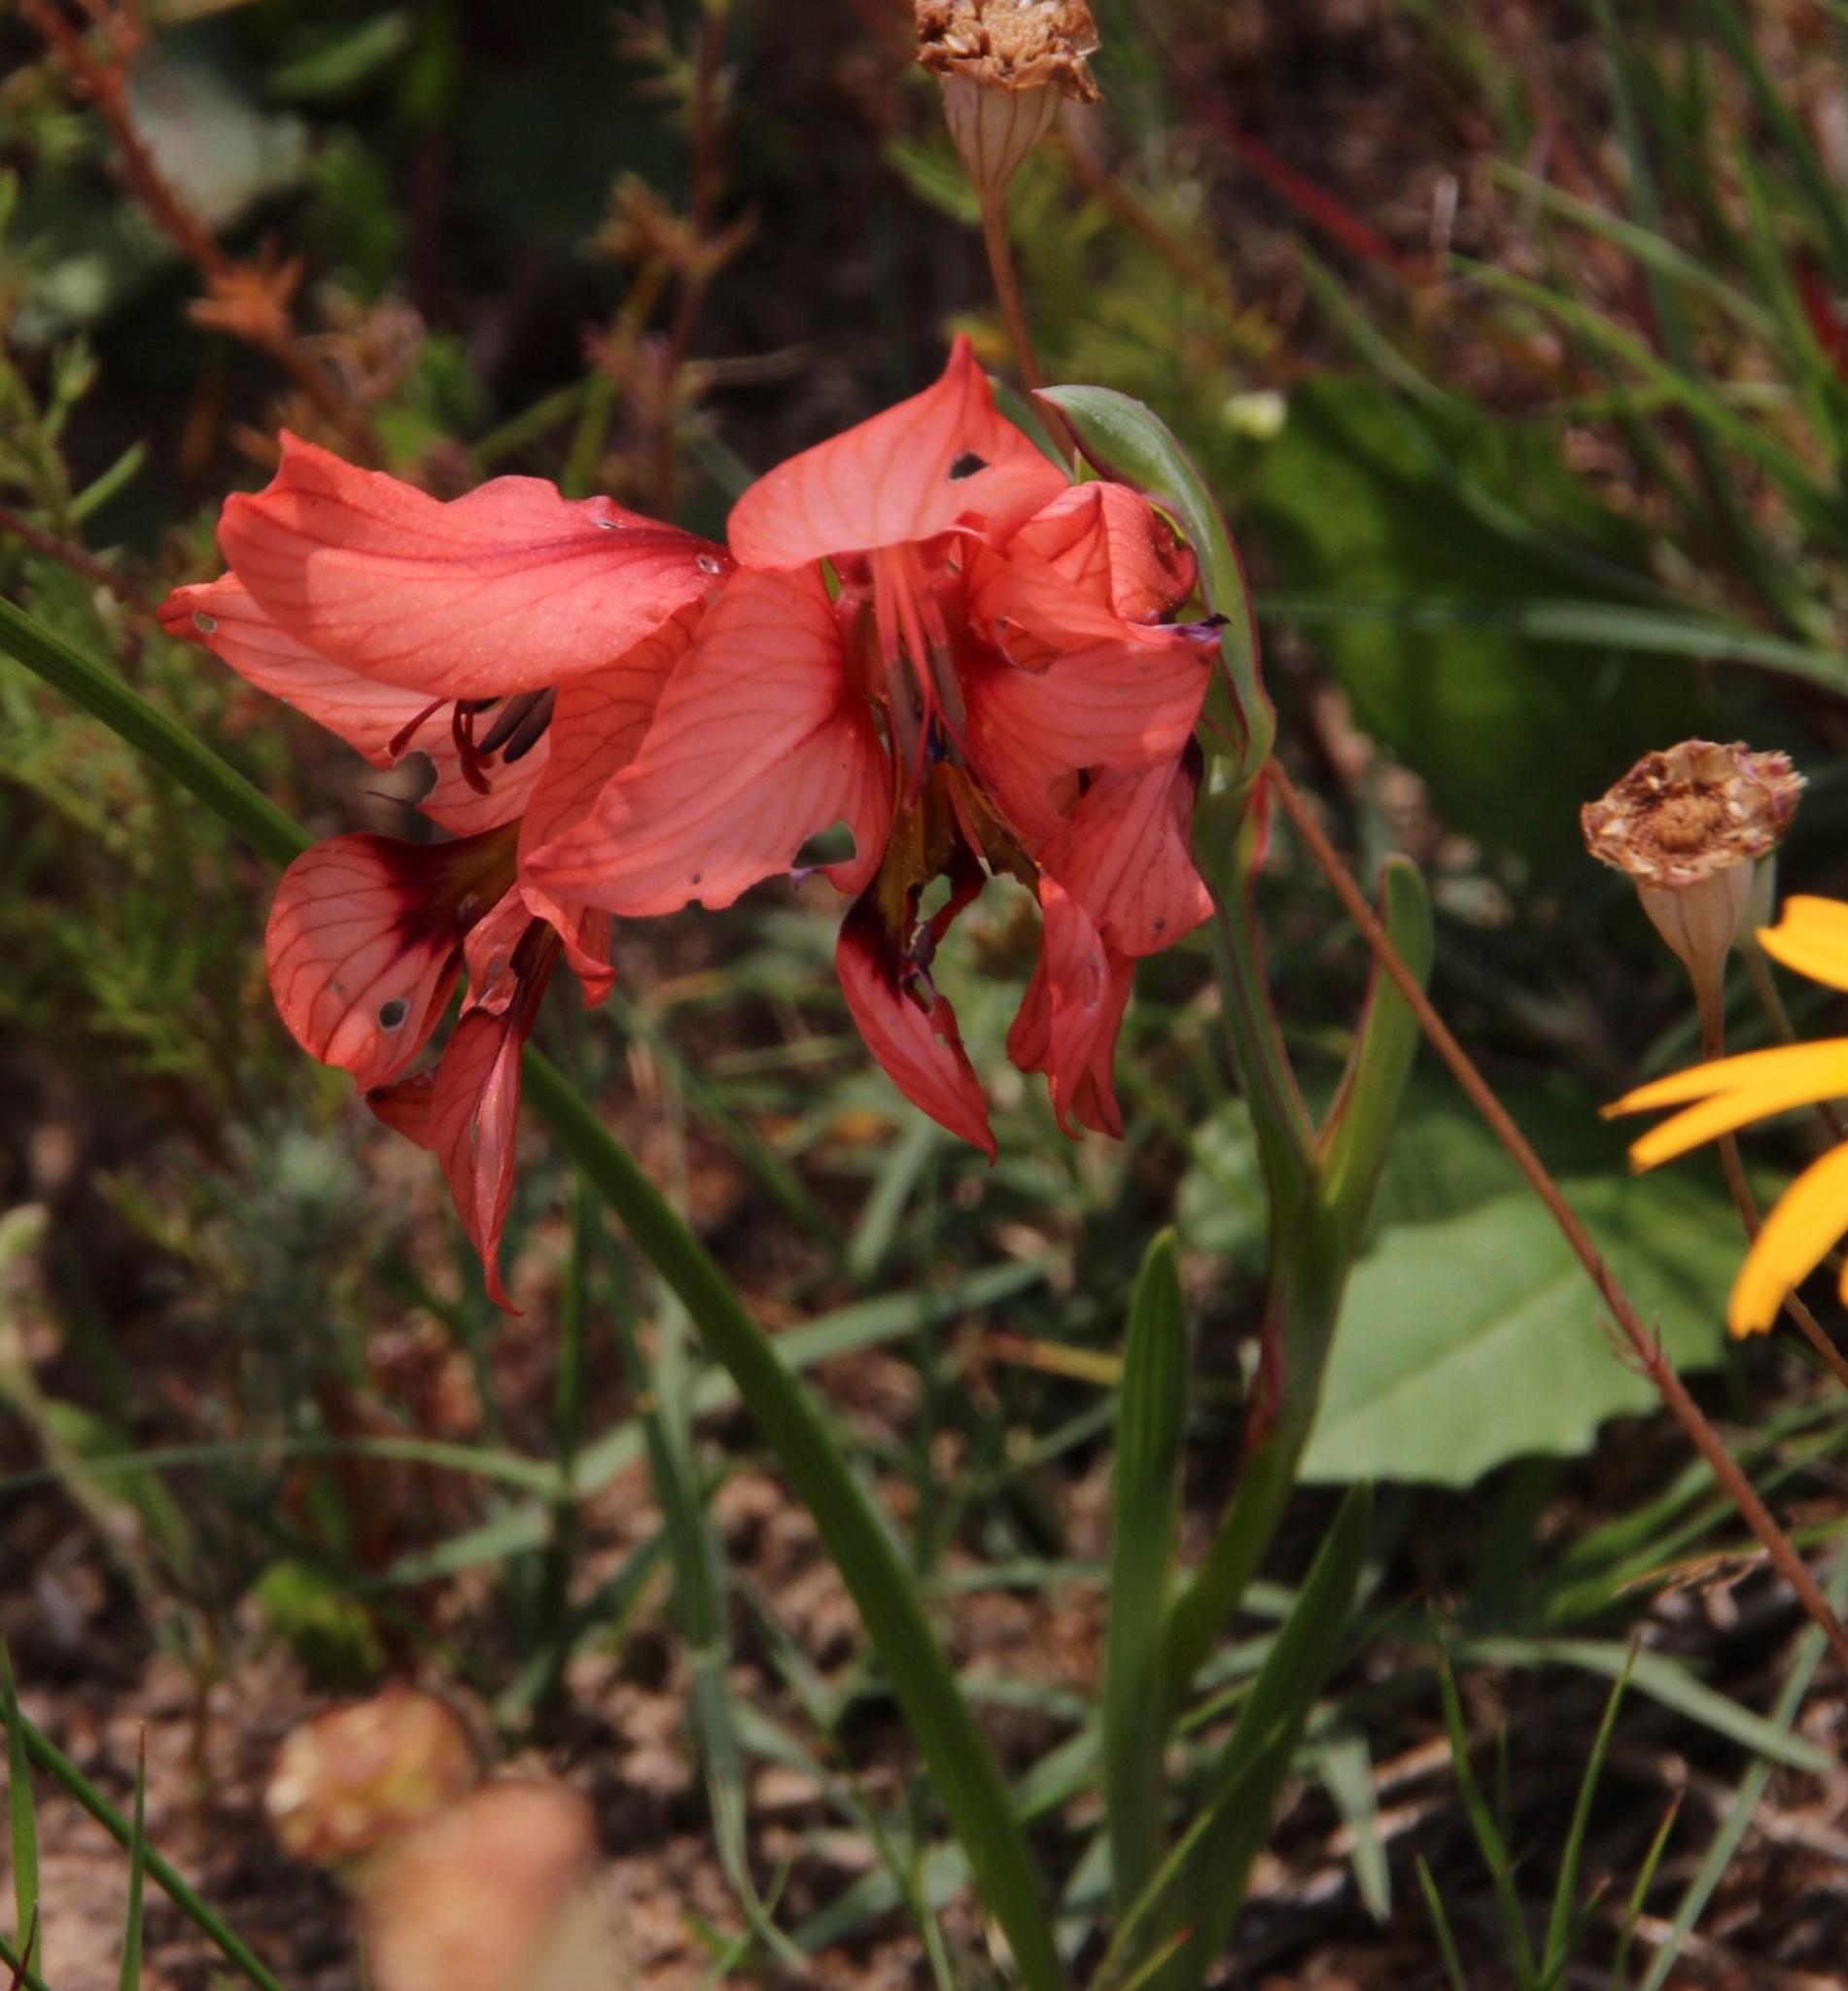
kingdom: Plantae
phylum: Tracheophyta
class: Liliopsida
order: Asparagales
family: Iridaceae
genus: Gladiolus
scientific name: Gladiolus meliusculus
